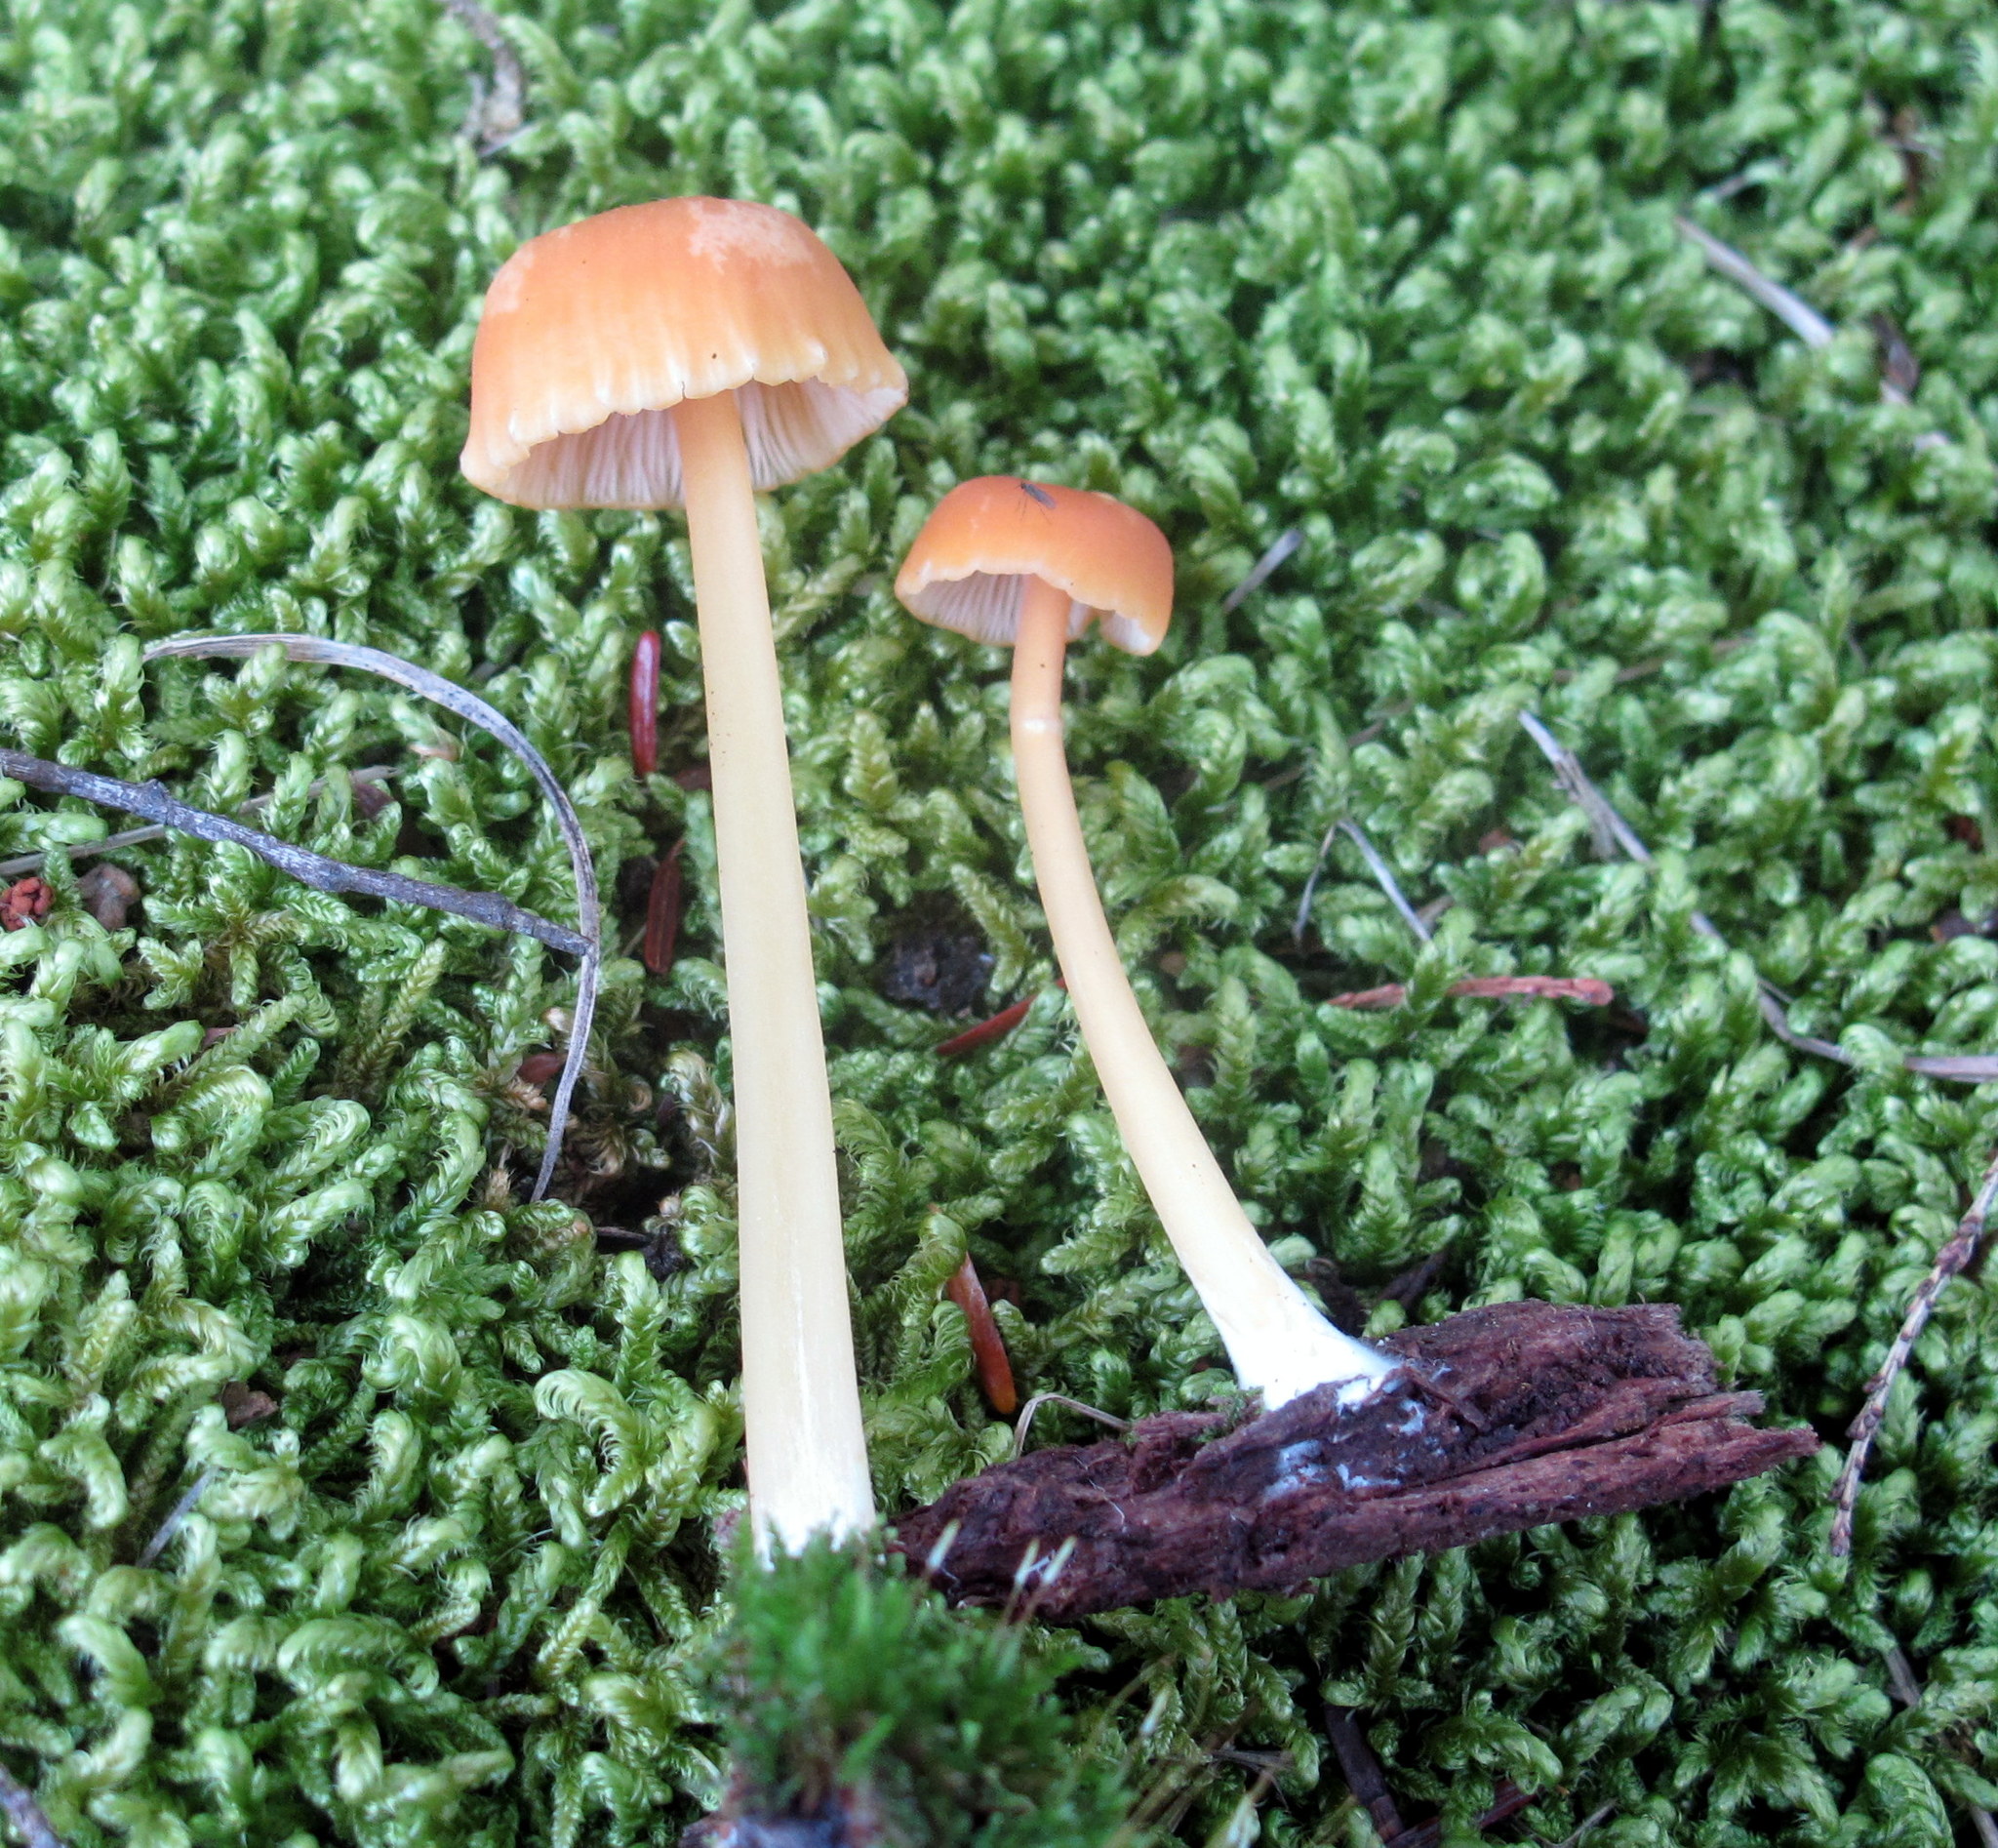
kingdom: Fungi
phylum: Basidiomycota
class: Agaricomycetes
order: Agaricales
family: Entolomataceae
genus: Entoloma
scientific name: Entoloma unicolor
